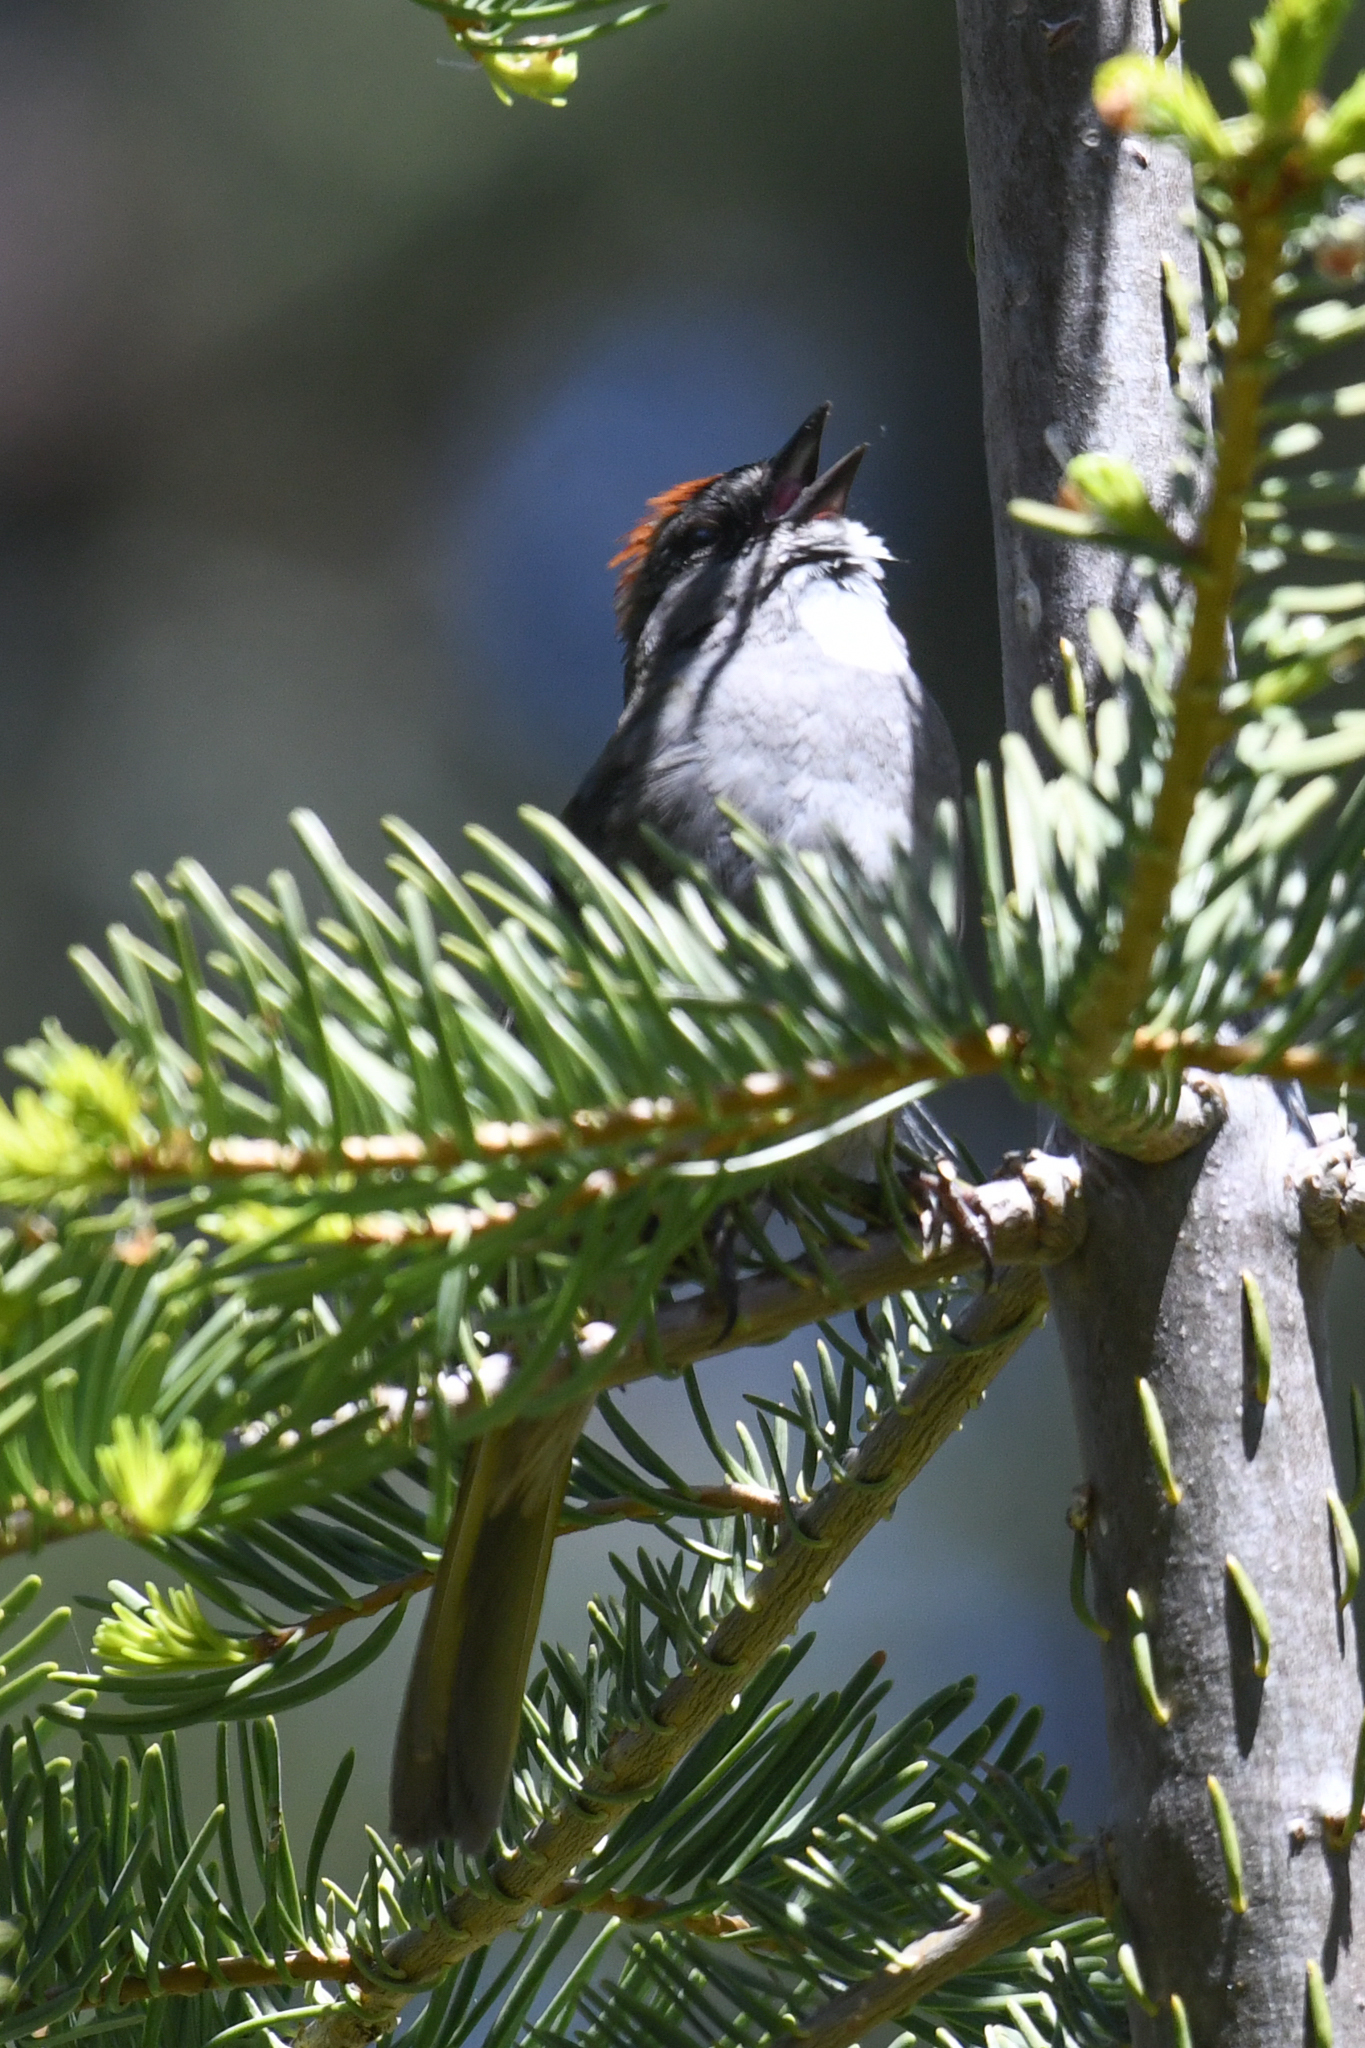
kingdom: Animalia
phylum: Chordata
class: Aves
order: Passeriformes
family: Passerellidae
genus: Pipilo
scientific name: Pipilo chlorurus
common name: Green-tailed towhee
